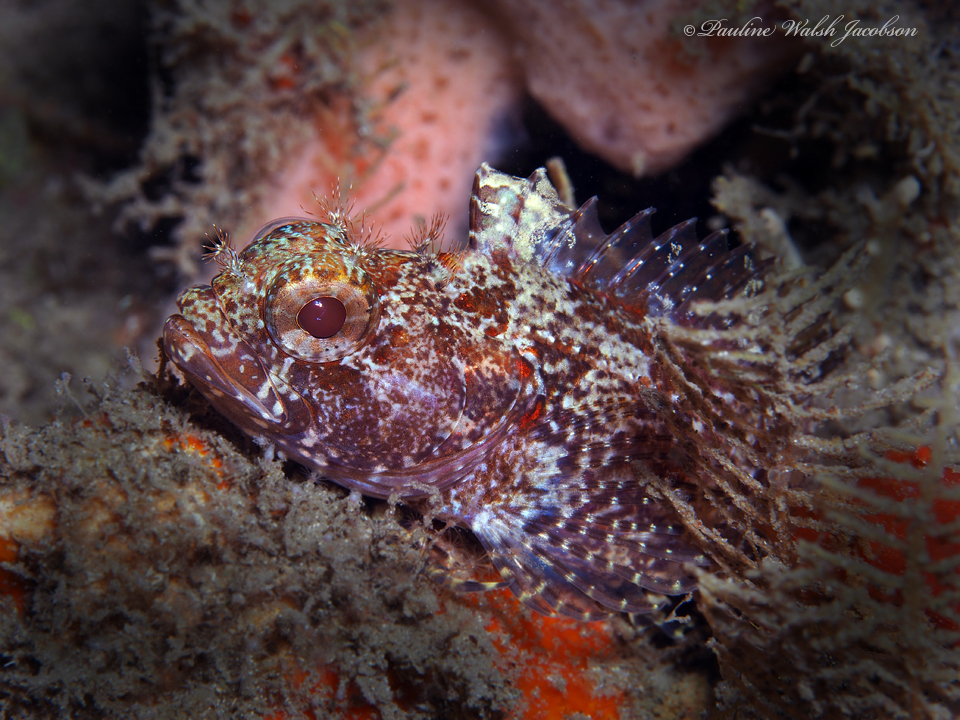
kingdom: Animalia
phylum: Chordata
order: Perciformes
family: Labrisomidae
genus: Gobioclinus
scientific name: Gobioclinus kalisherae
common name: Downy blenny
